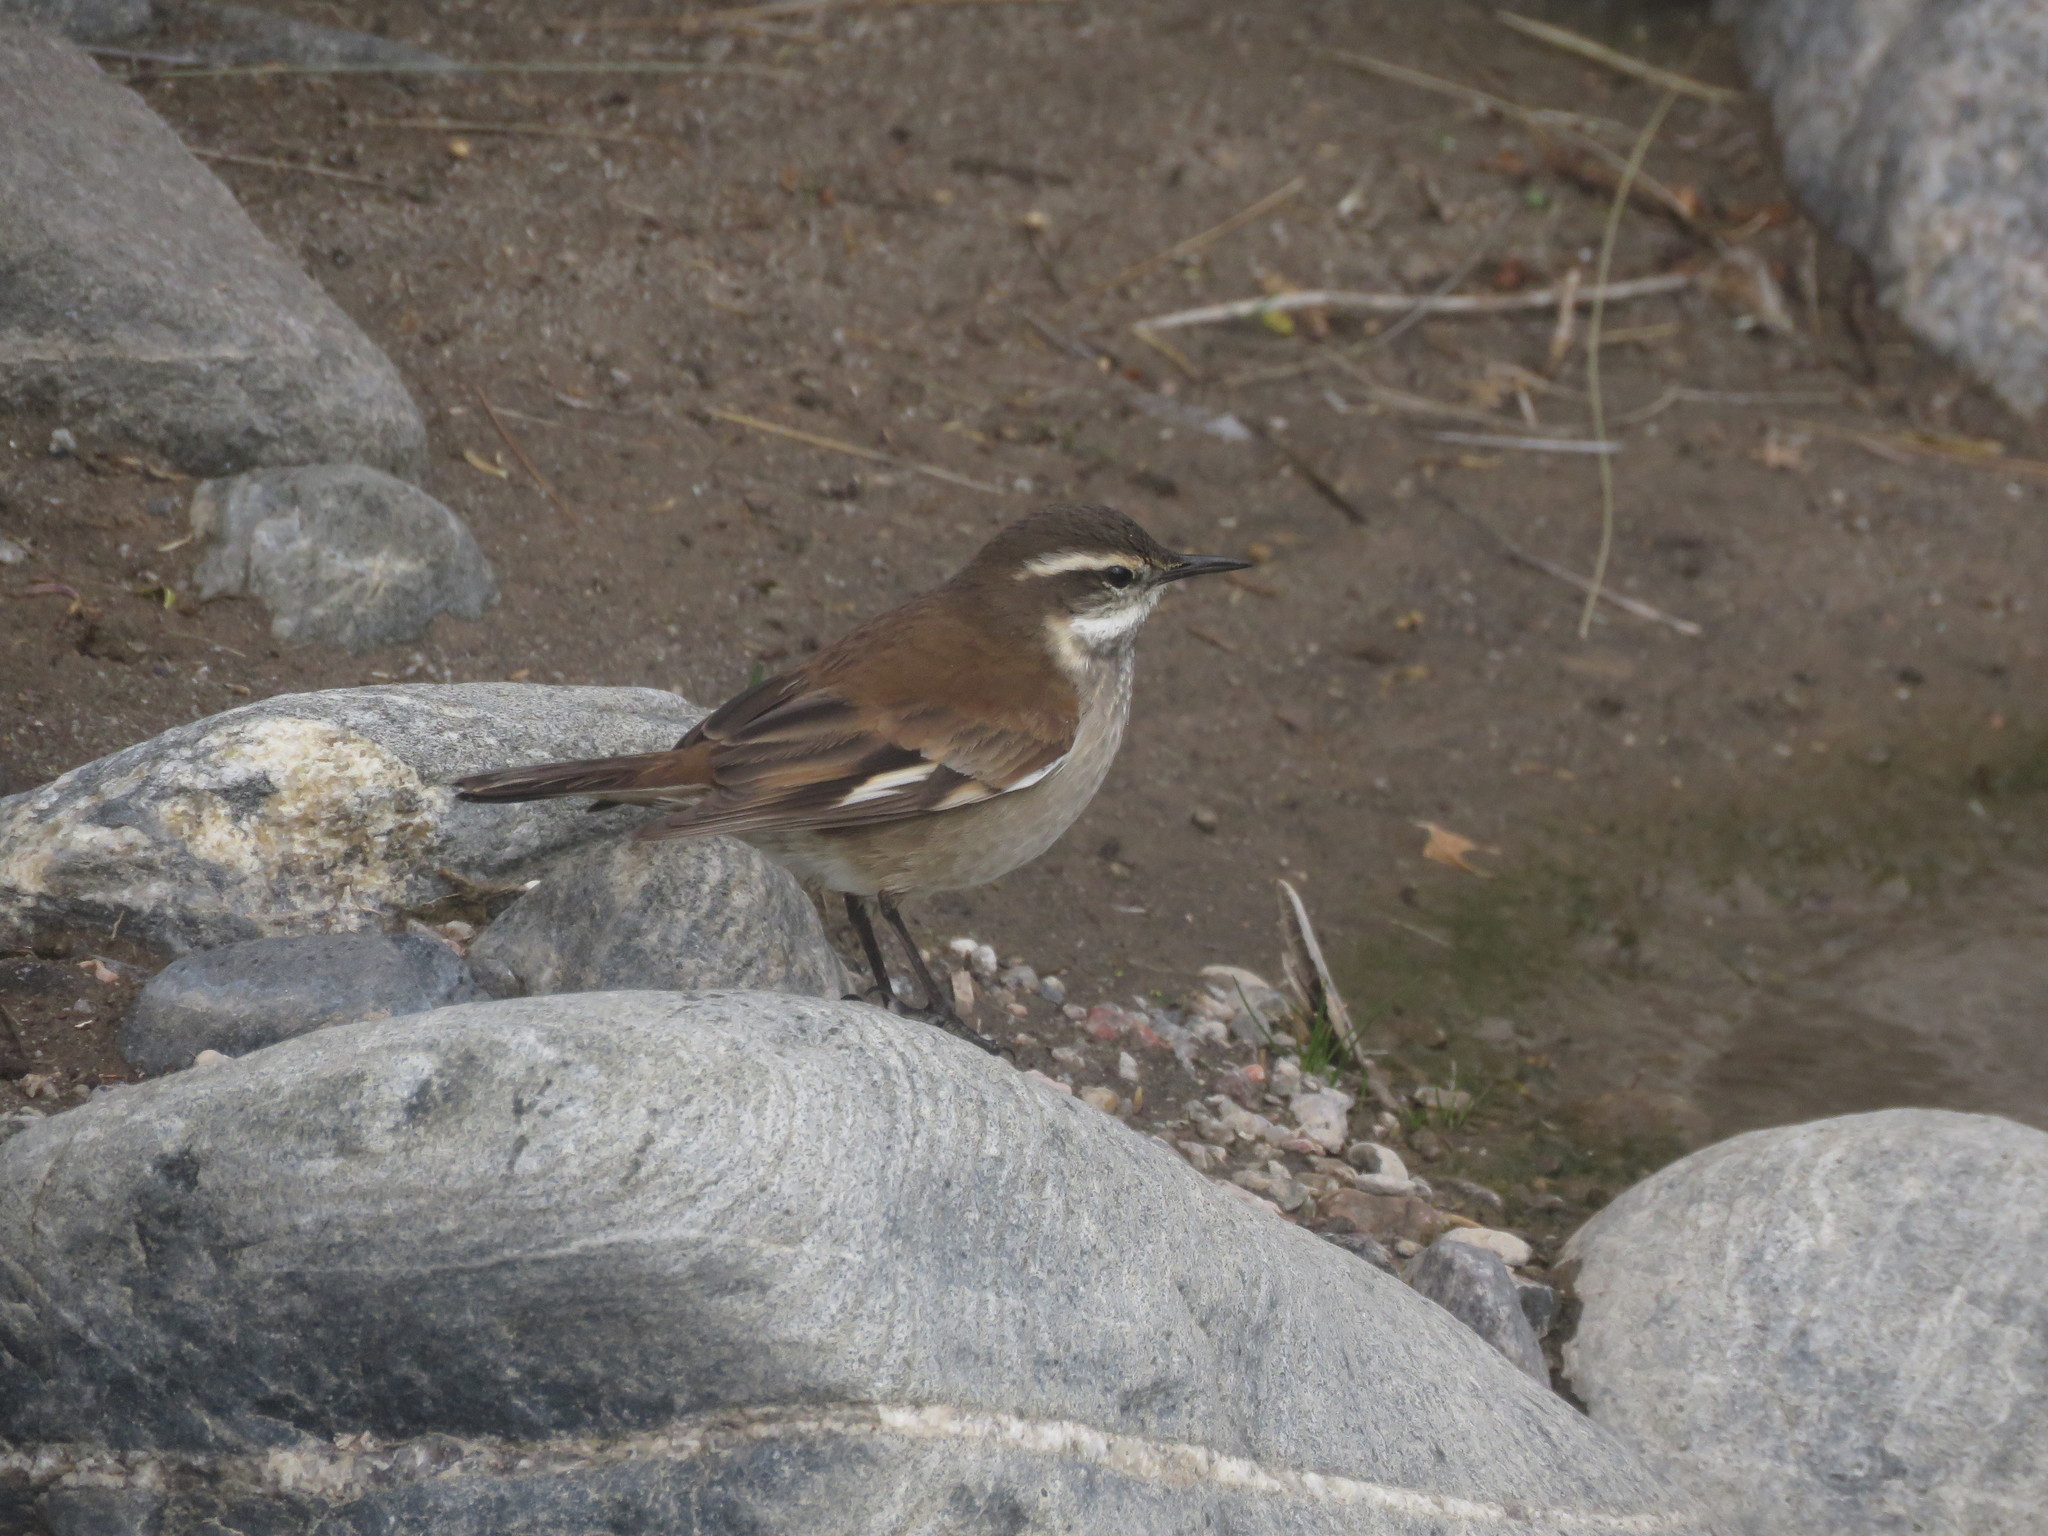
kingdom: Animalia
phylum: Chordata
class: Aves
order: Passeriformes
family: Furnariidae
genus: Cinclodes
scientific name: Cinclodes fuscus
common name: Buff-winged cinclodes
